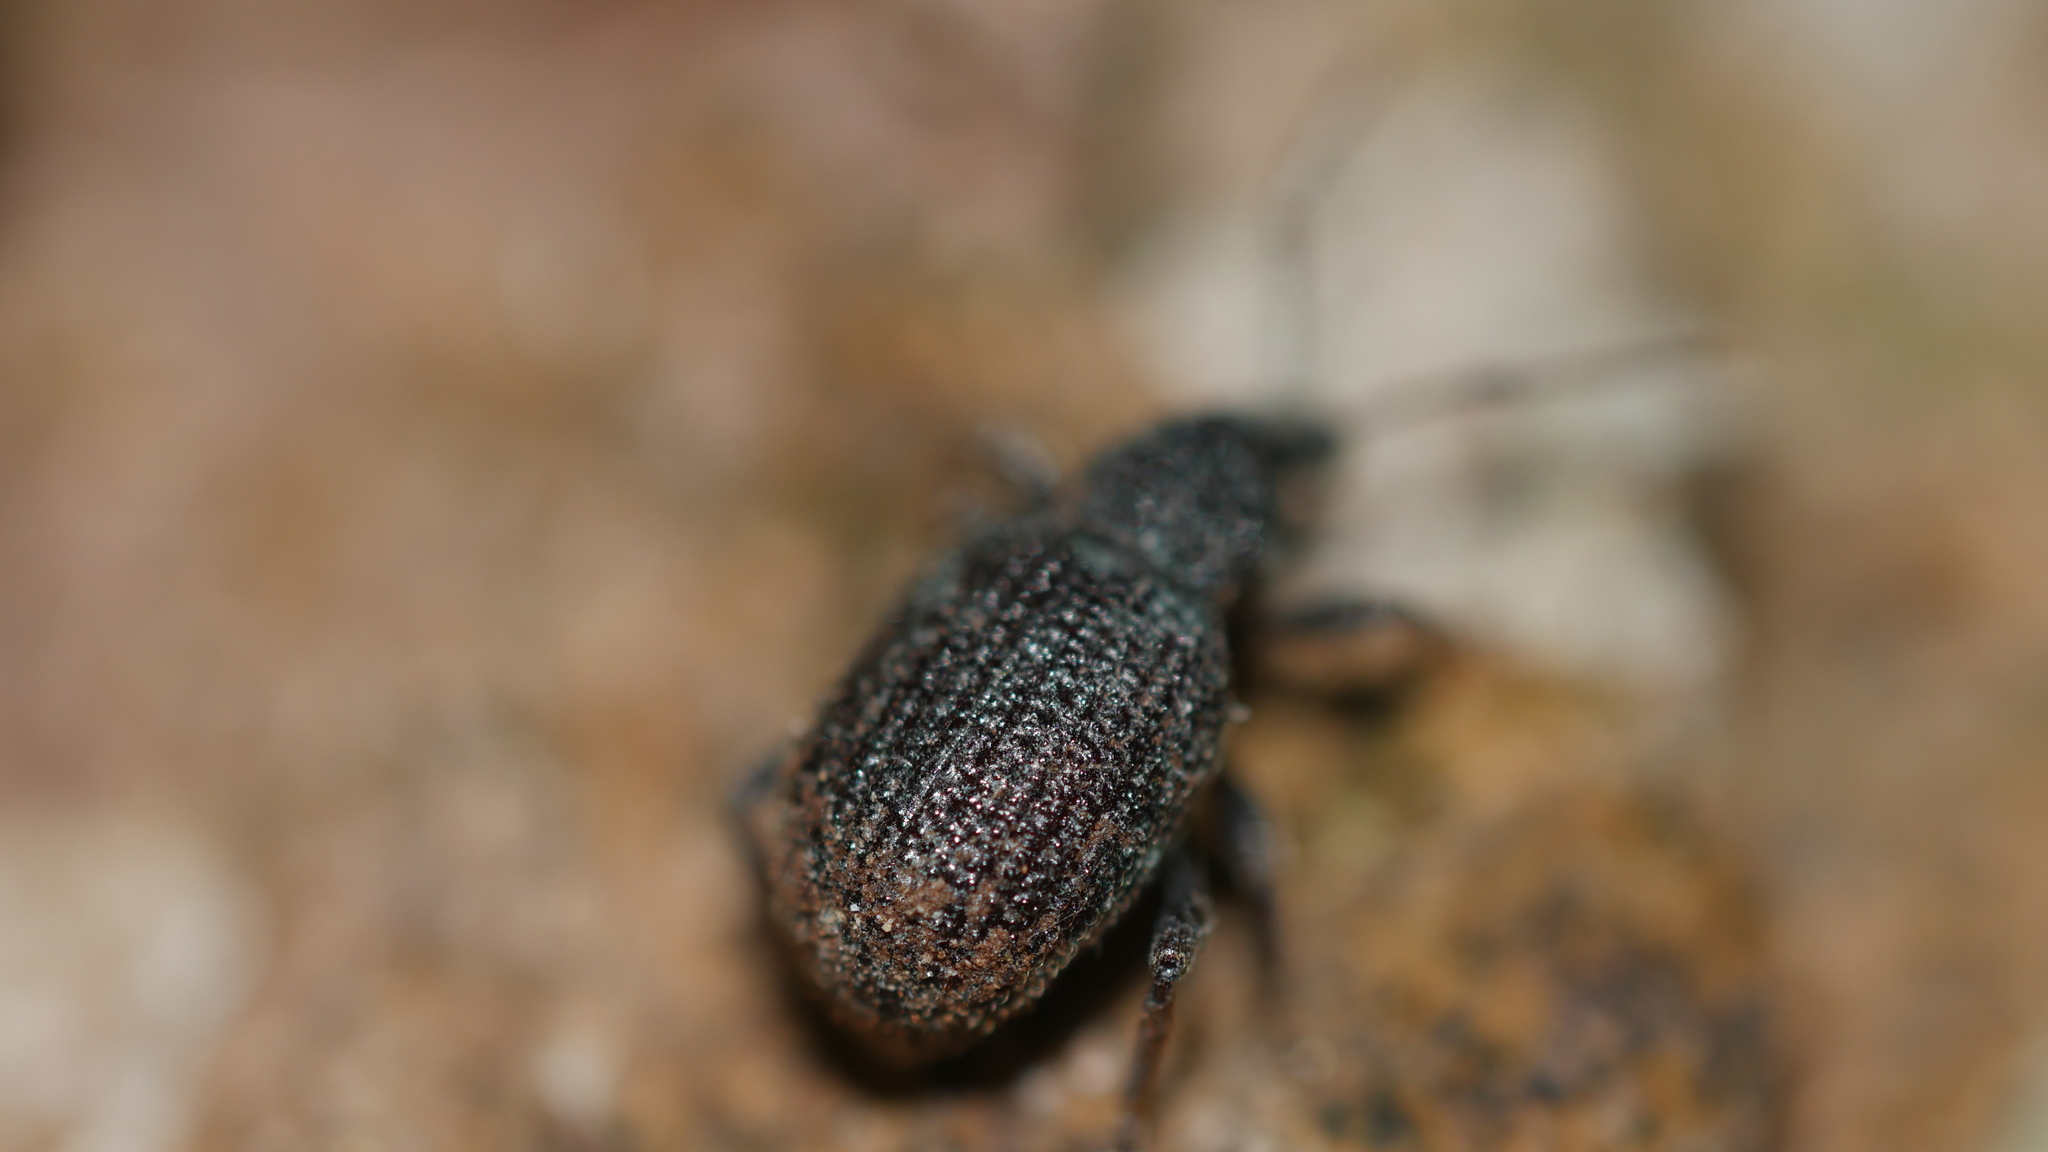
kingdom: Animalia
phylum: Arthropoda
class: Insecta
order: Coleoptera
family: Curculionidae
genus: Otiorhynchus
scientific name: Otiorhynchus rugosostriatus
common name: Weevil
